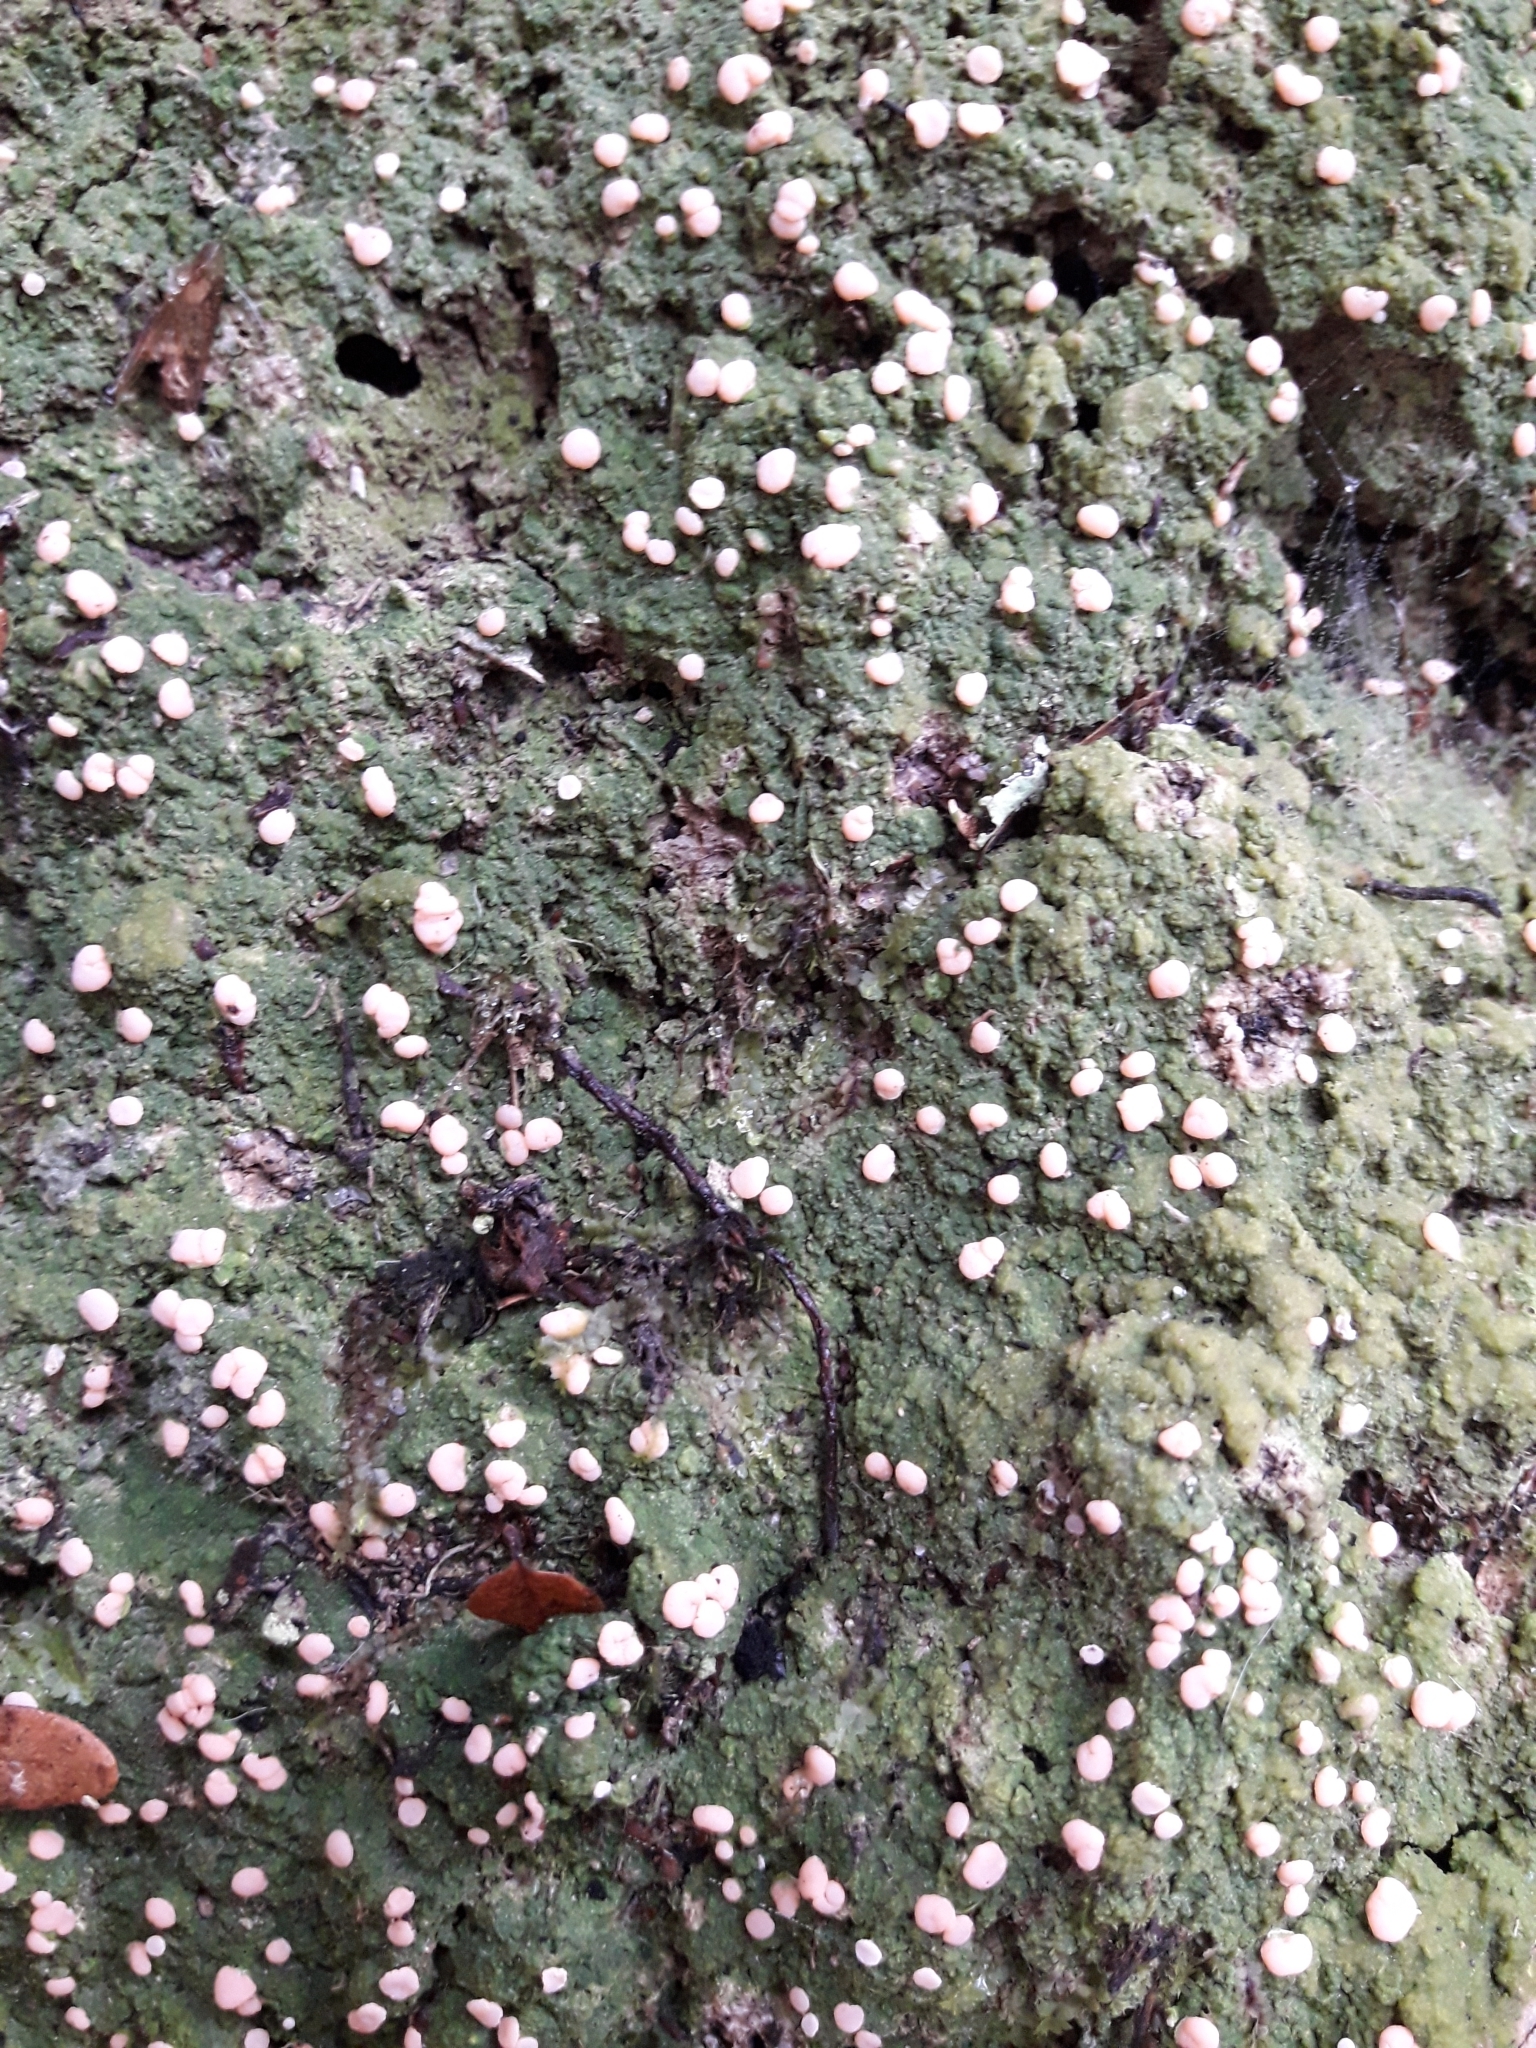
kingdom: Fungi
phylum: Ascomycota
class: Lecanoromycetes
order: Pertusariales
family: Icmadophilaceae
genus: Dibaeis
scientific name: Dibaeis absoluta
